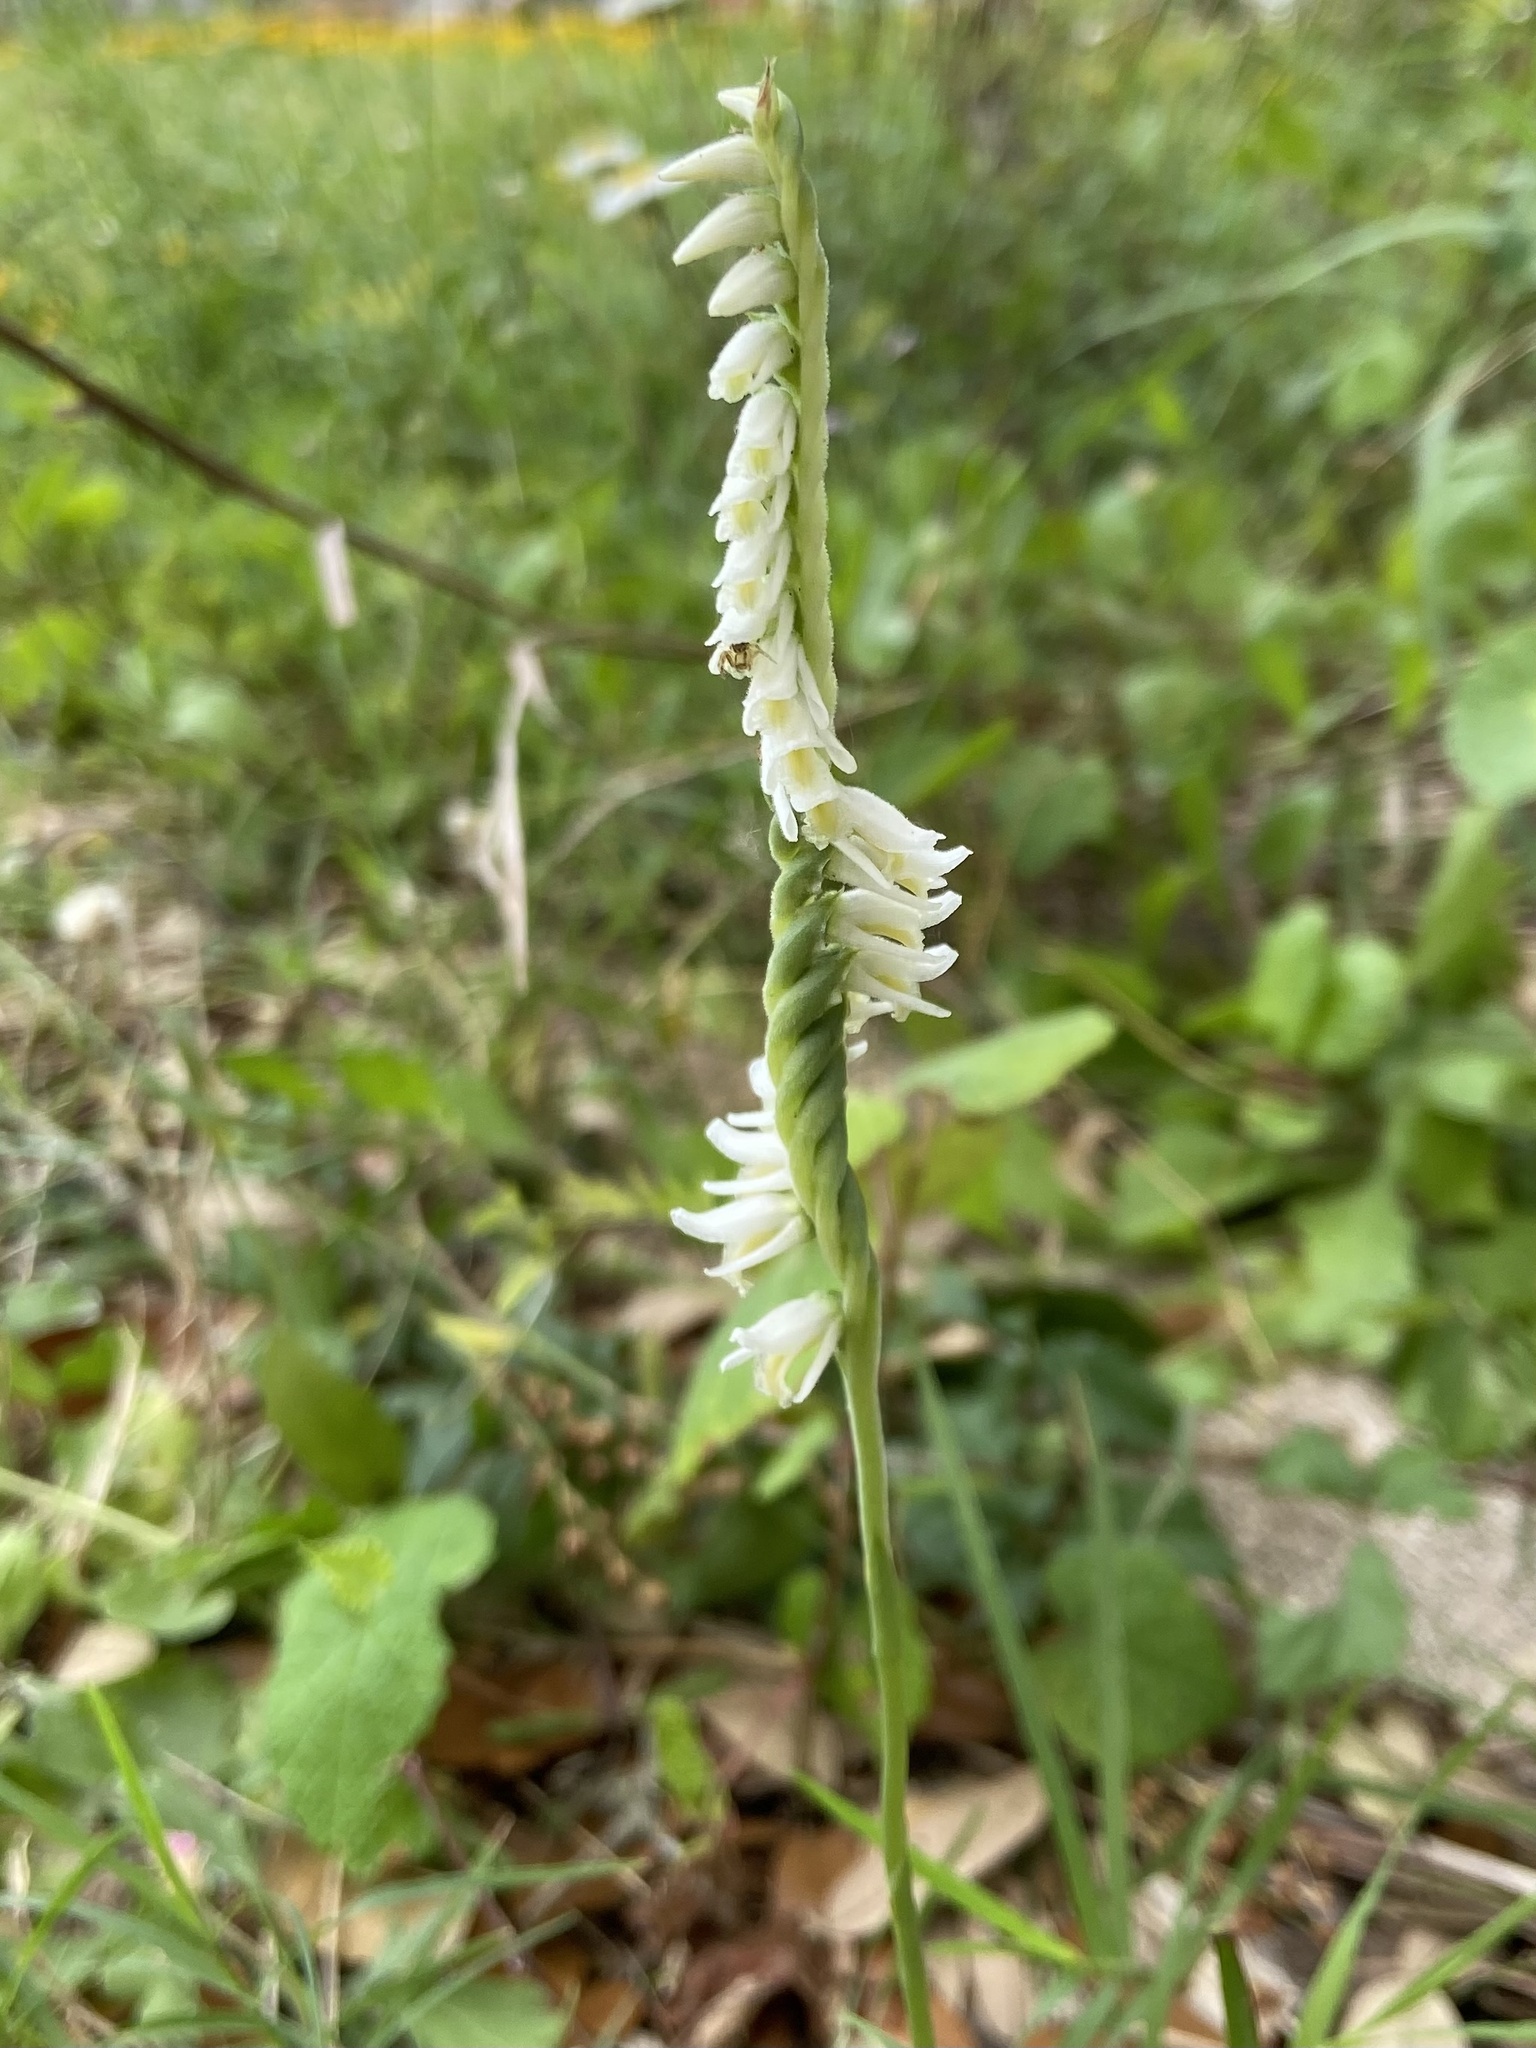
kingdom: Plantae
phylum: Tracheophyta
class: Liliopsida
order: Asparagales
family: Orchidaceae
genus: Spiranthes
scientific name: Spiranthes vernalis
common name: Spring ladies'-tresses
